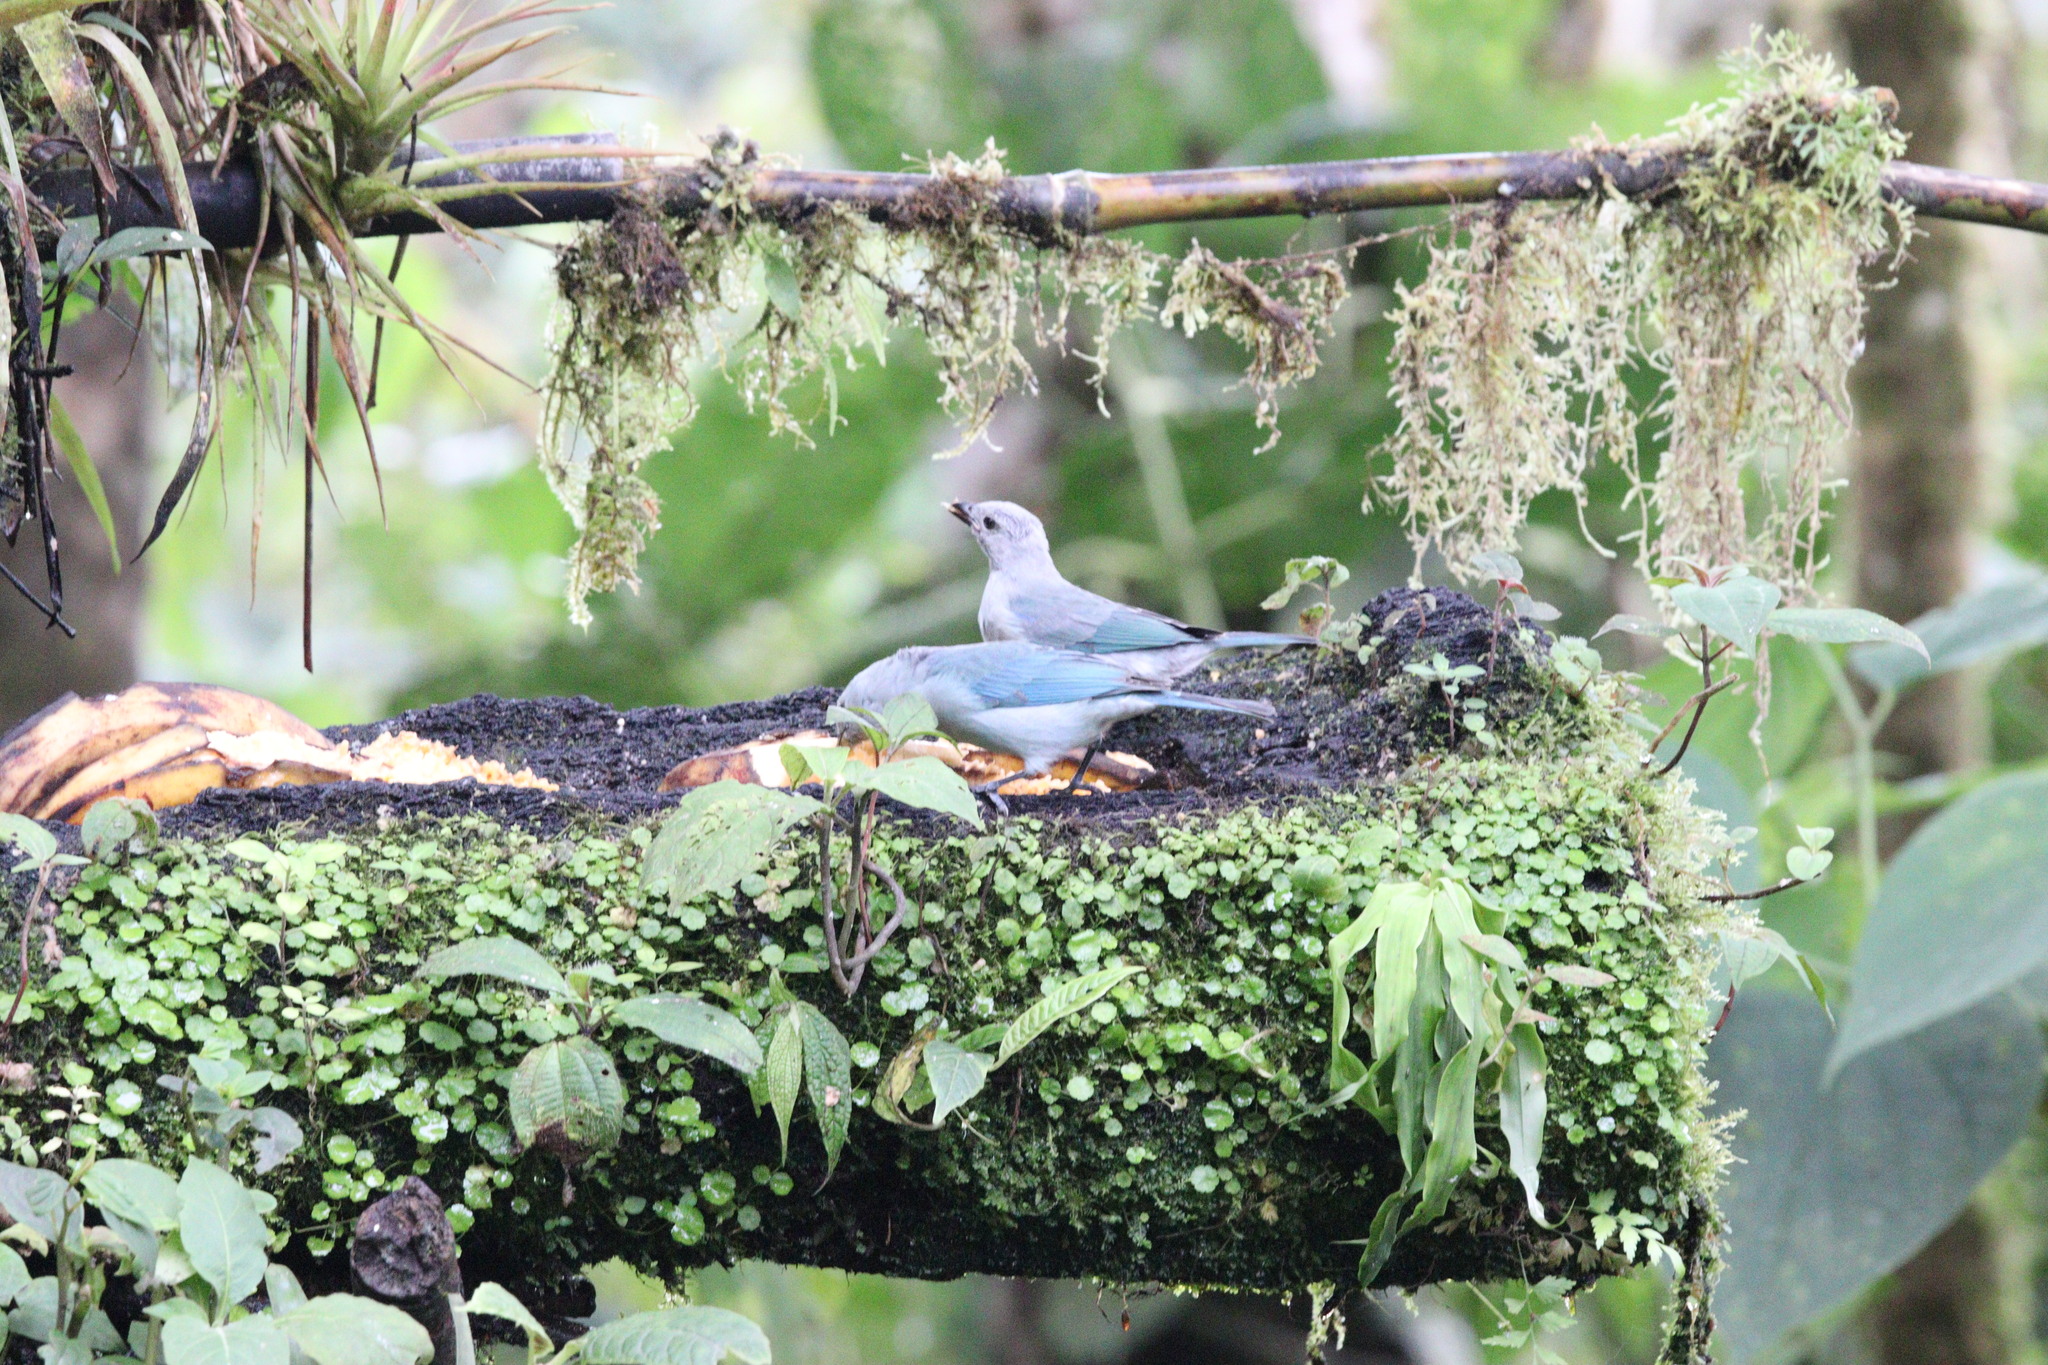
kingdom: Animalia
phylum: Chordata
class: Aves
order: Passeriformes
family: Thraupidae
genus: Thraupis
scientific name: Thraupis episcopus
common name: Blue-grey tanager
